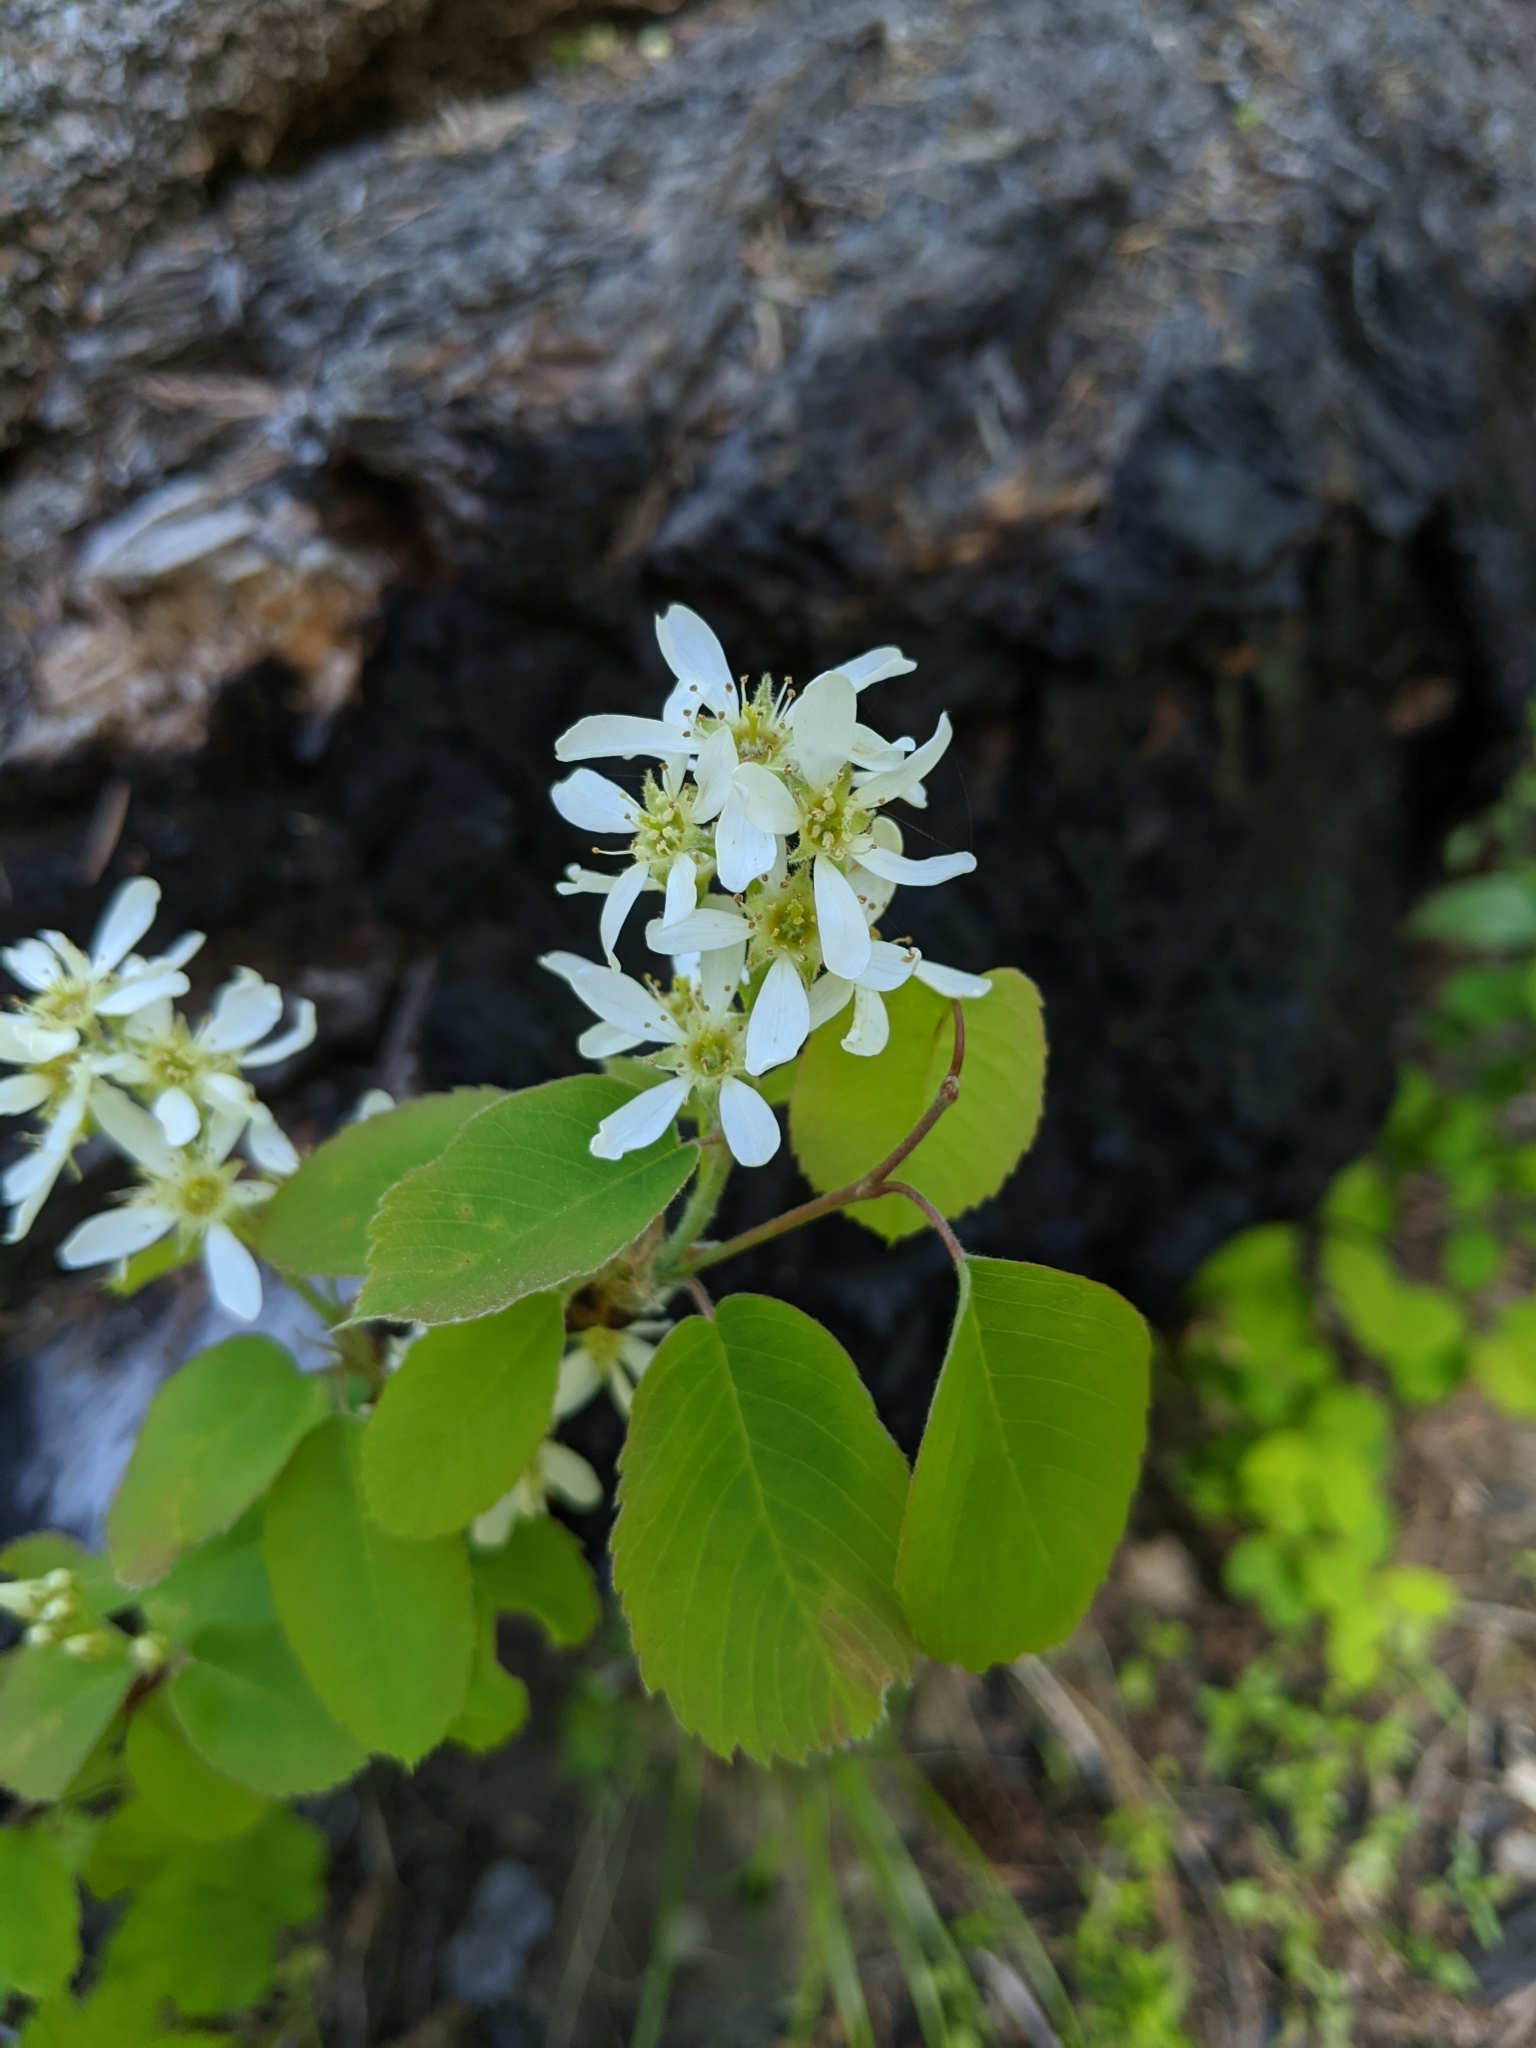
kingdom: Plantae
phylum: Tracheophyta
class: Magnoliopsida
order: Rosales
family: Rosaceae
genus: Amelanchier
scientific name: Amelanchier alnifolia
